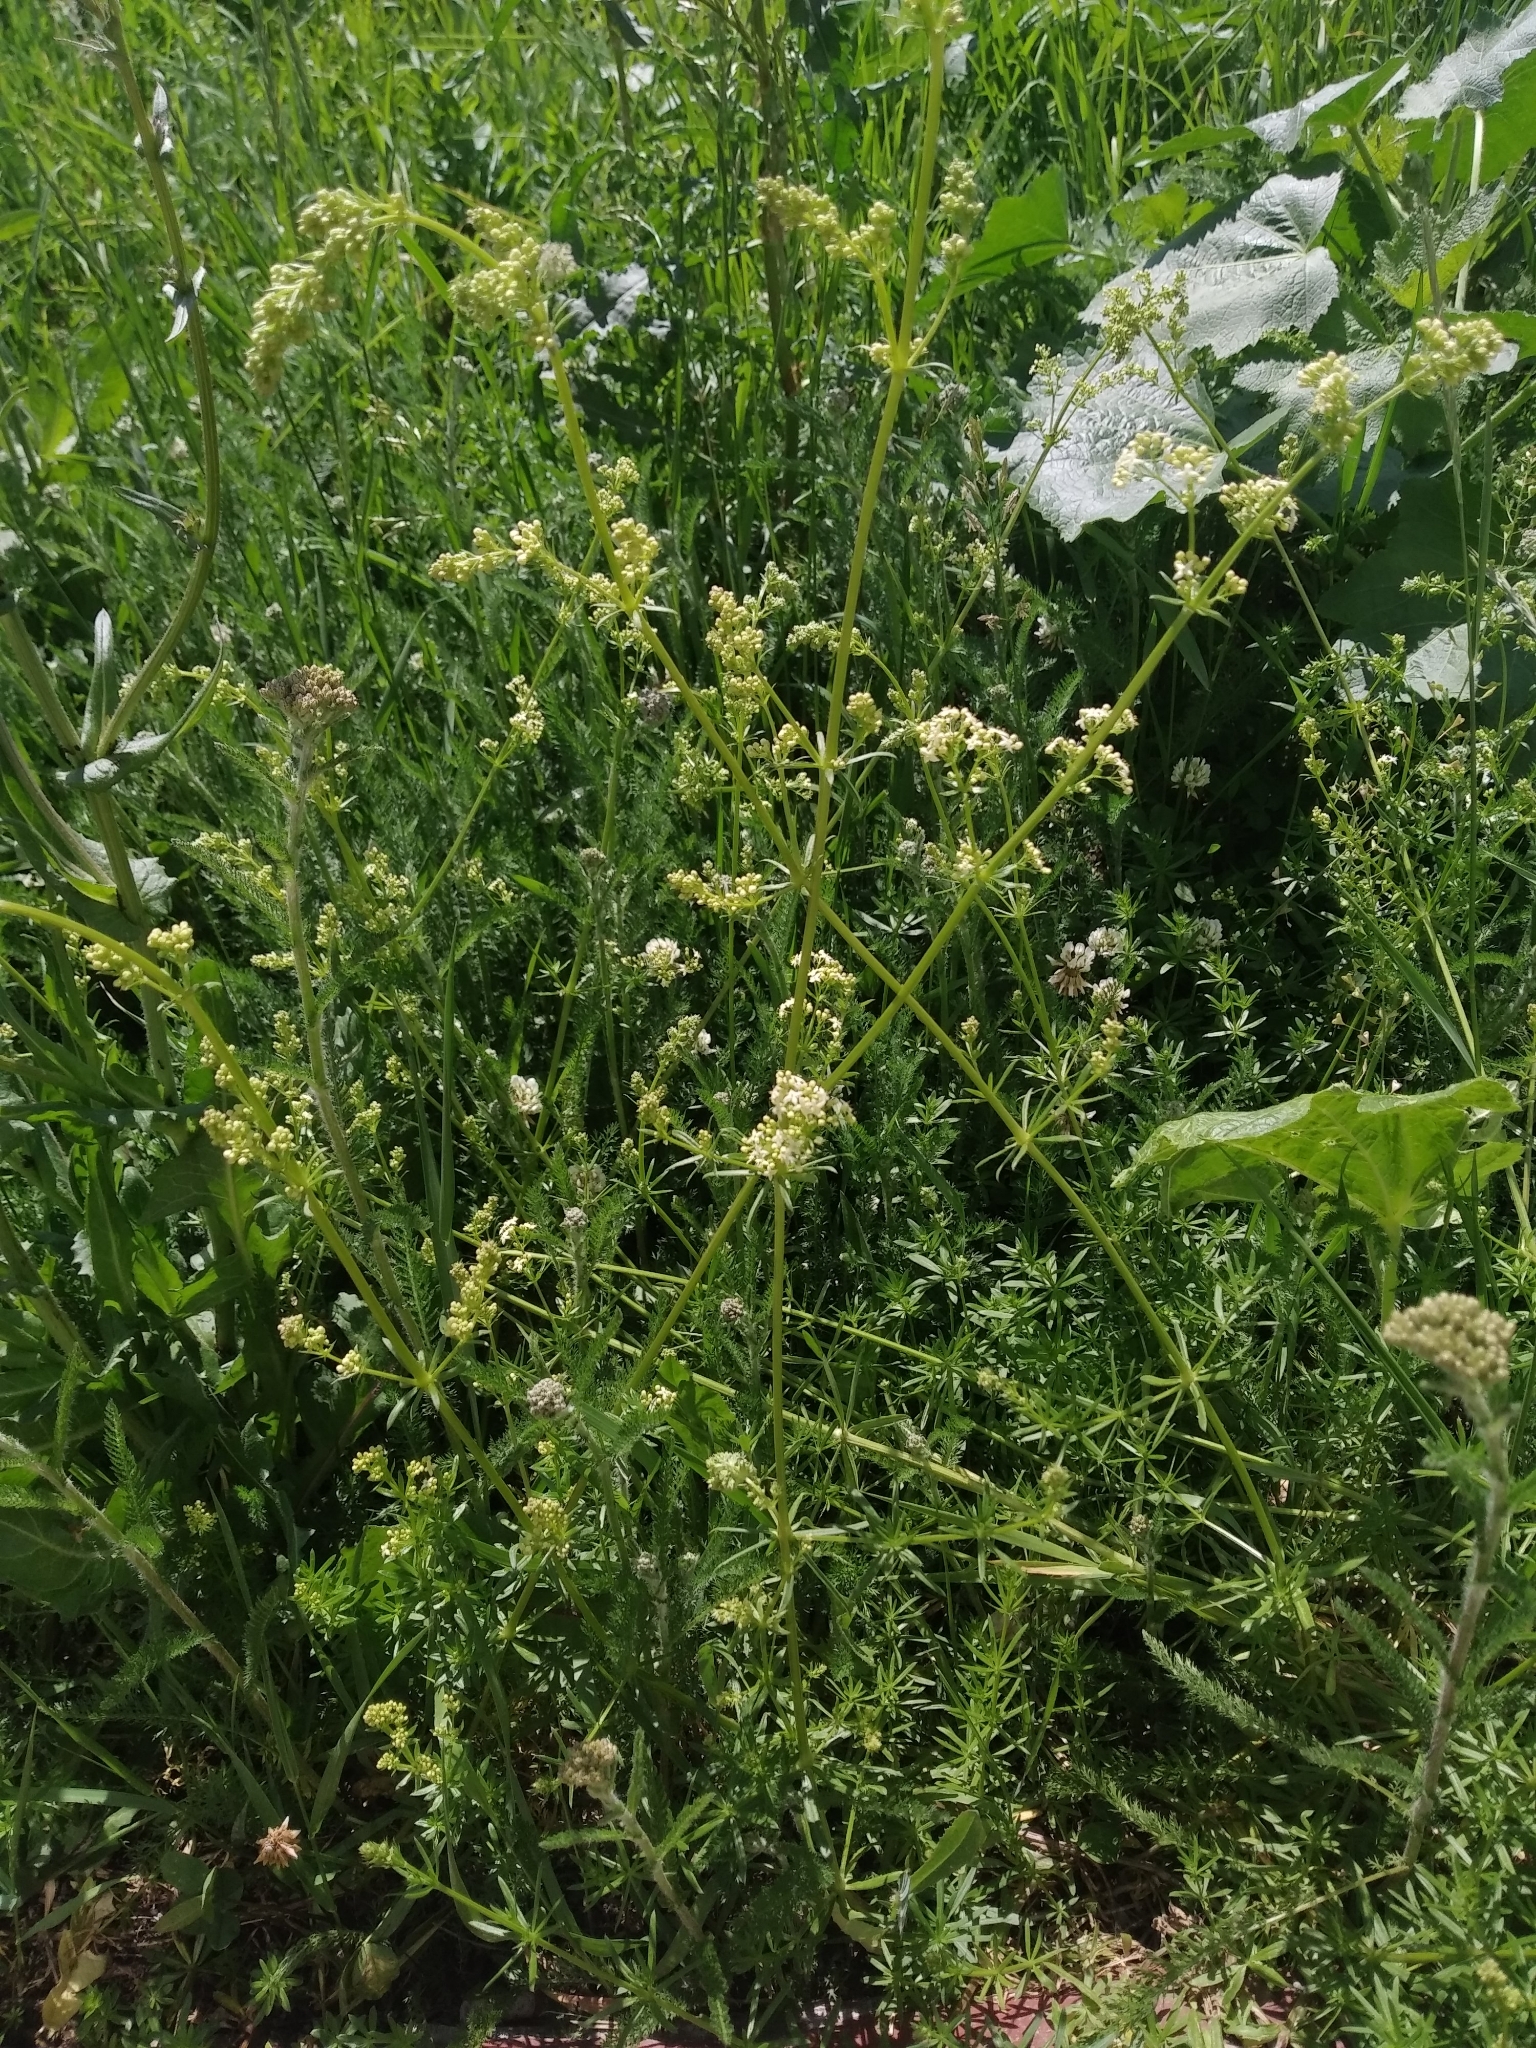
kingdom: Plantae
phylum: Tracheophyta
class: Magnoliopsida
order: Gentianales
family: Rubiaceae
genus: Galium
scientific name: Galium mollugo
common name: Hedge bedstraw
